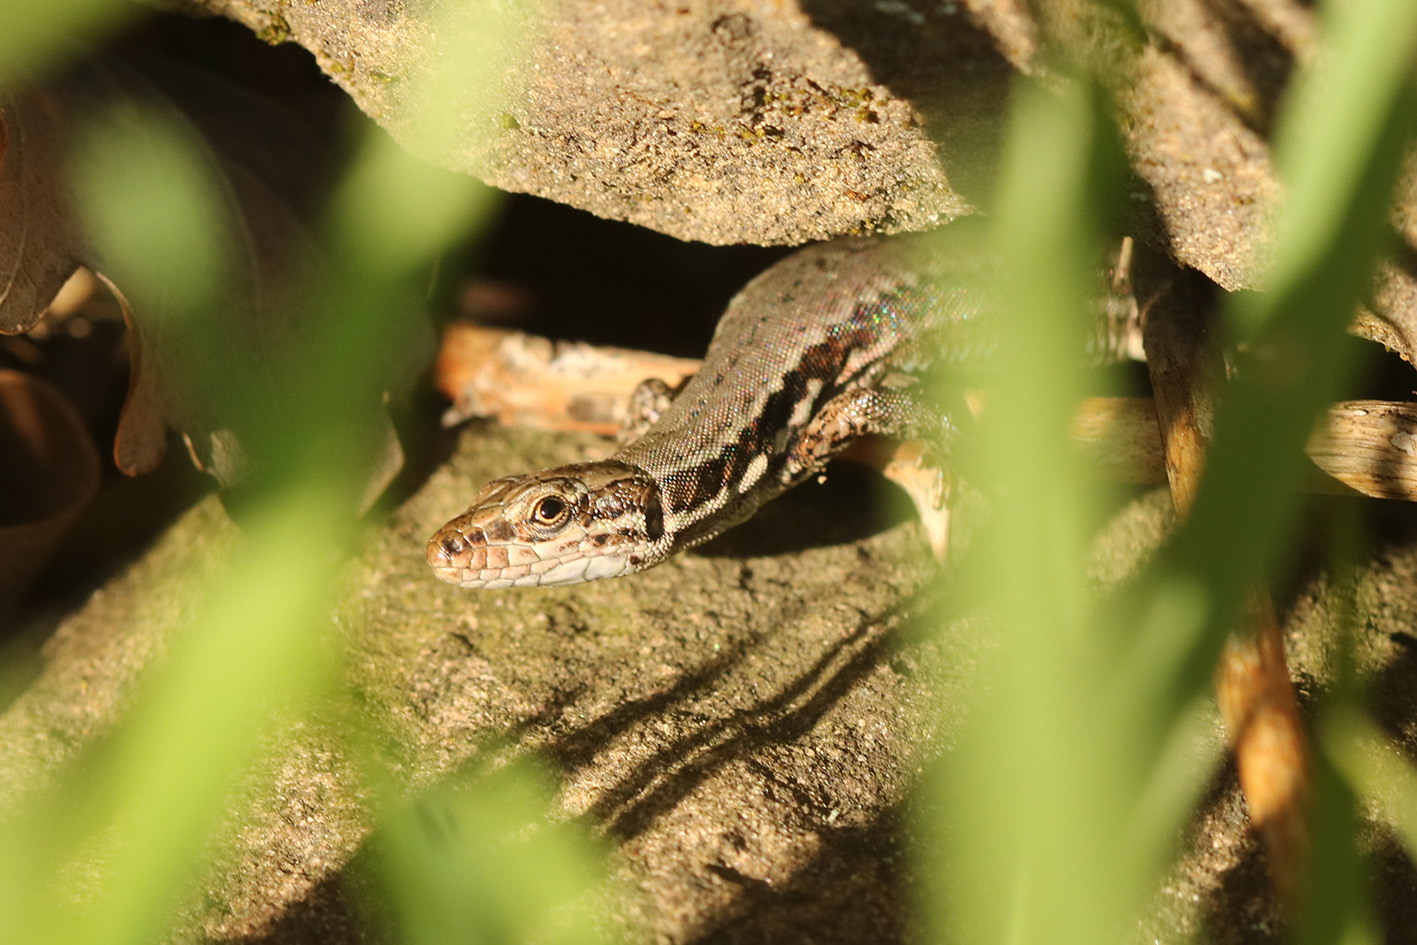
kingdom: Animalia
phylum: Chordata
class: Squamata
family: Lacertidae
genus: Podarcis
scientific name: Podarcis muralis
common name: Common wall lizard
